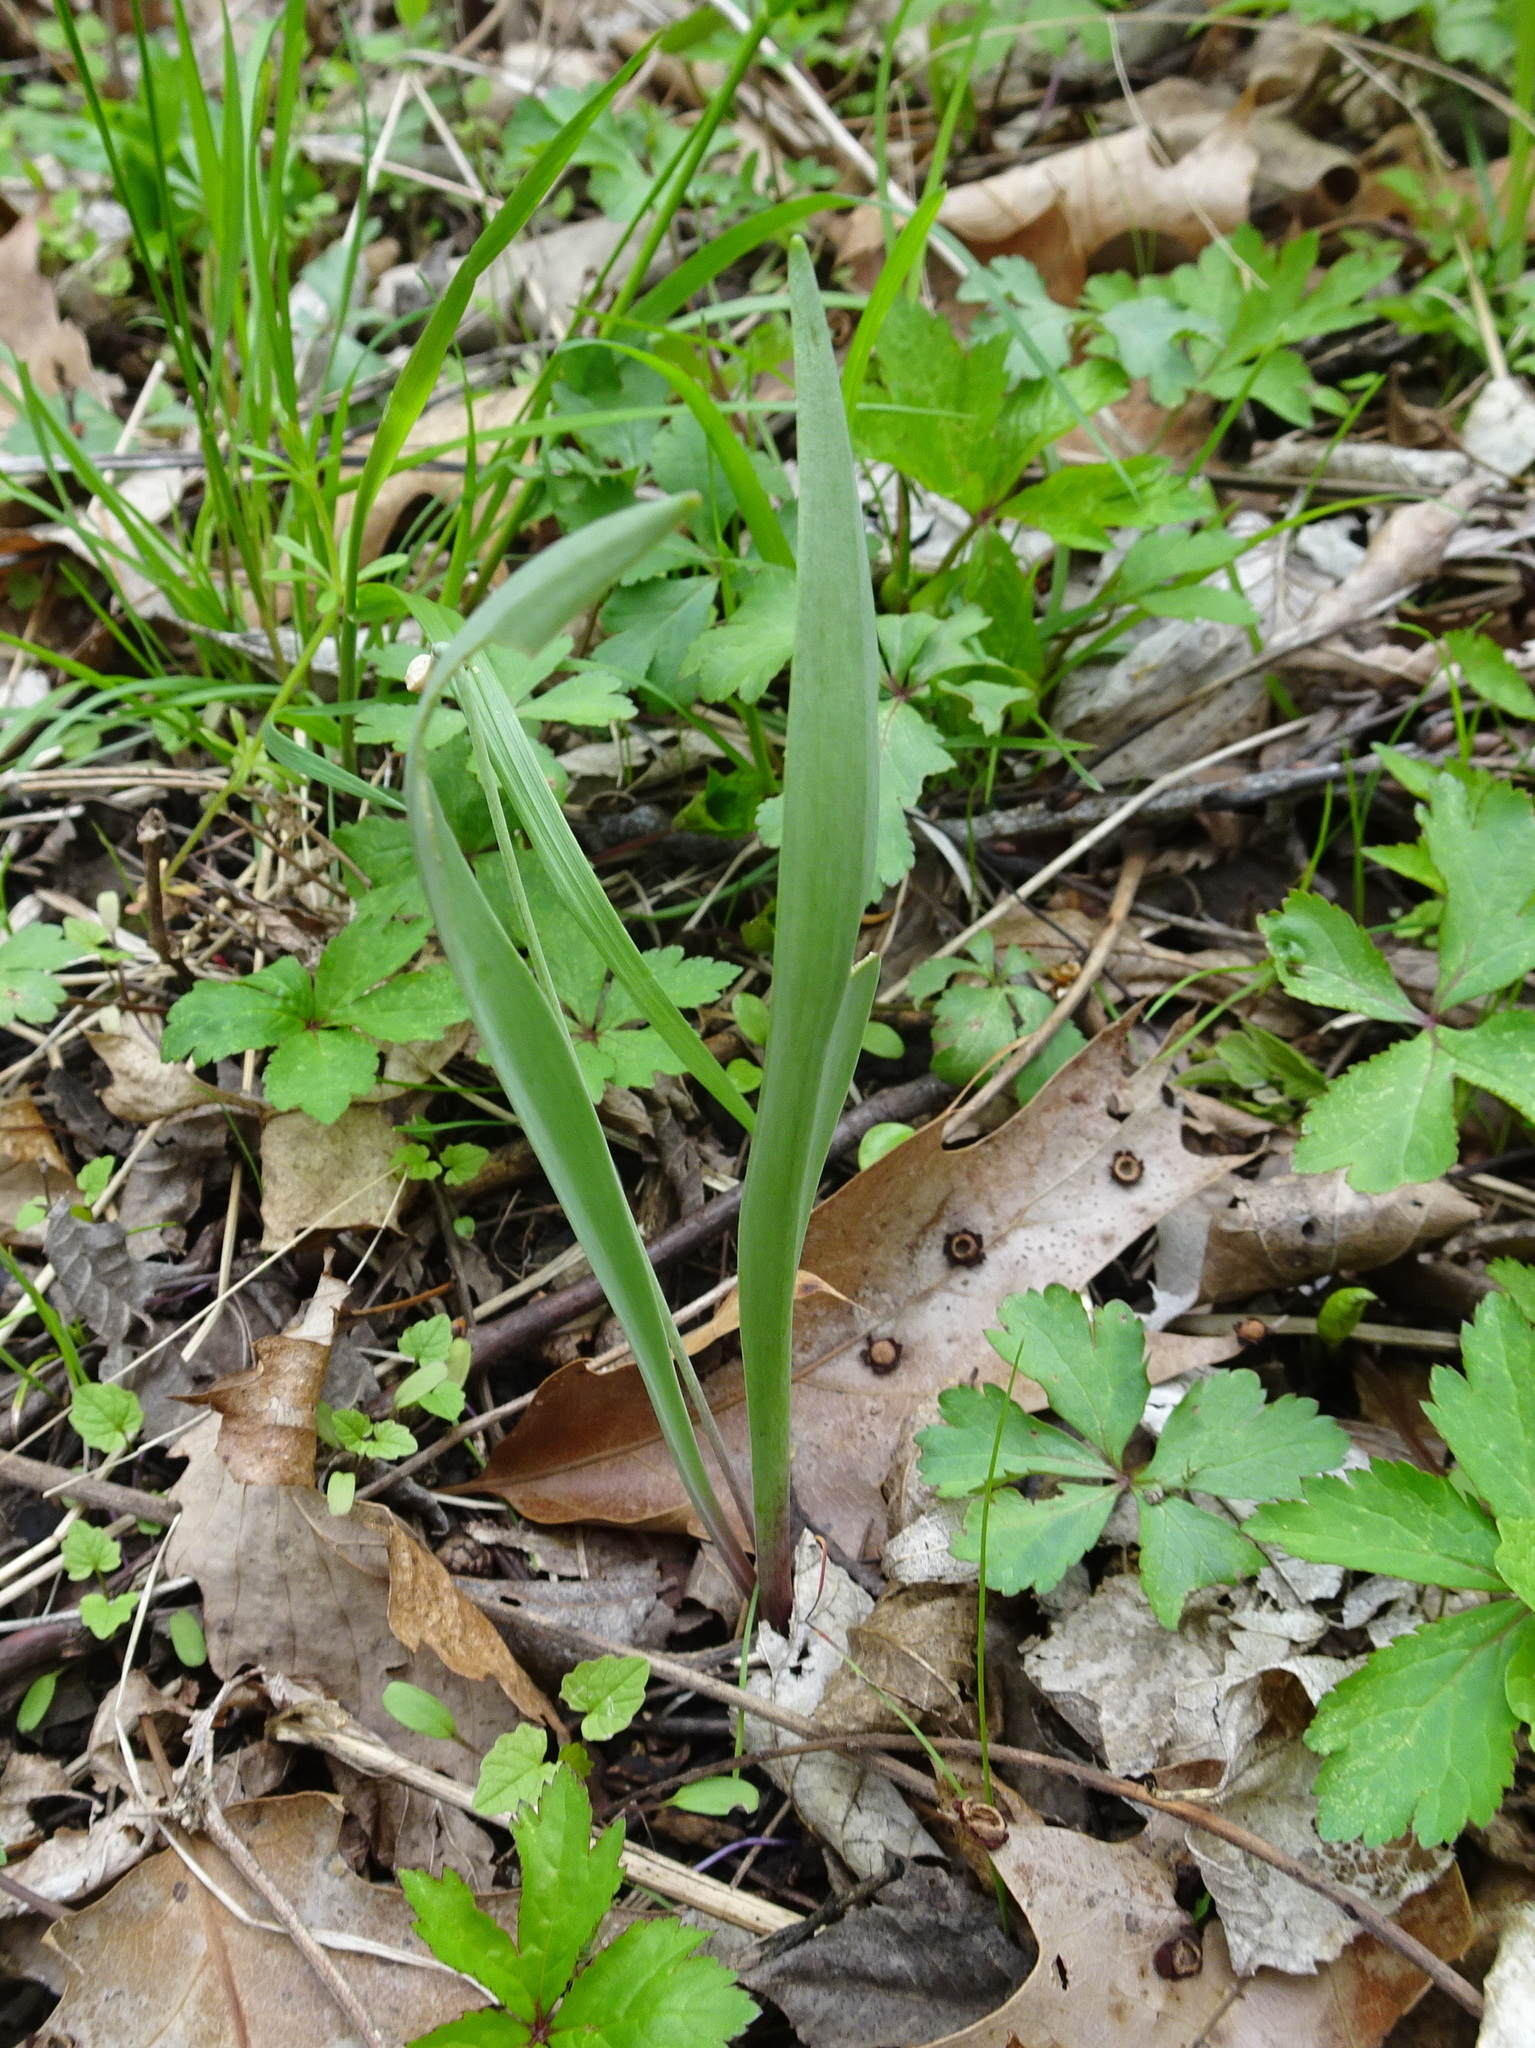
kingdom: Plantae
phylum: Tracheophyta
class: Liliopsida
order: Liliales
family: Liliaceae
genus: Erythronium
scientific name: Erythronium mesochoreum
